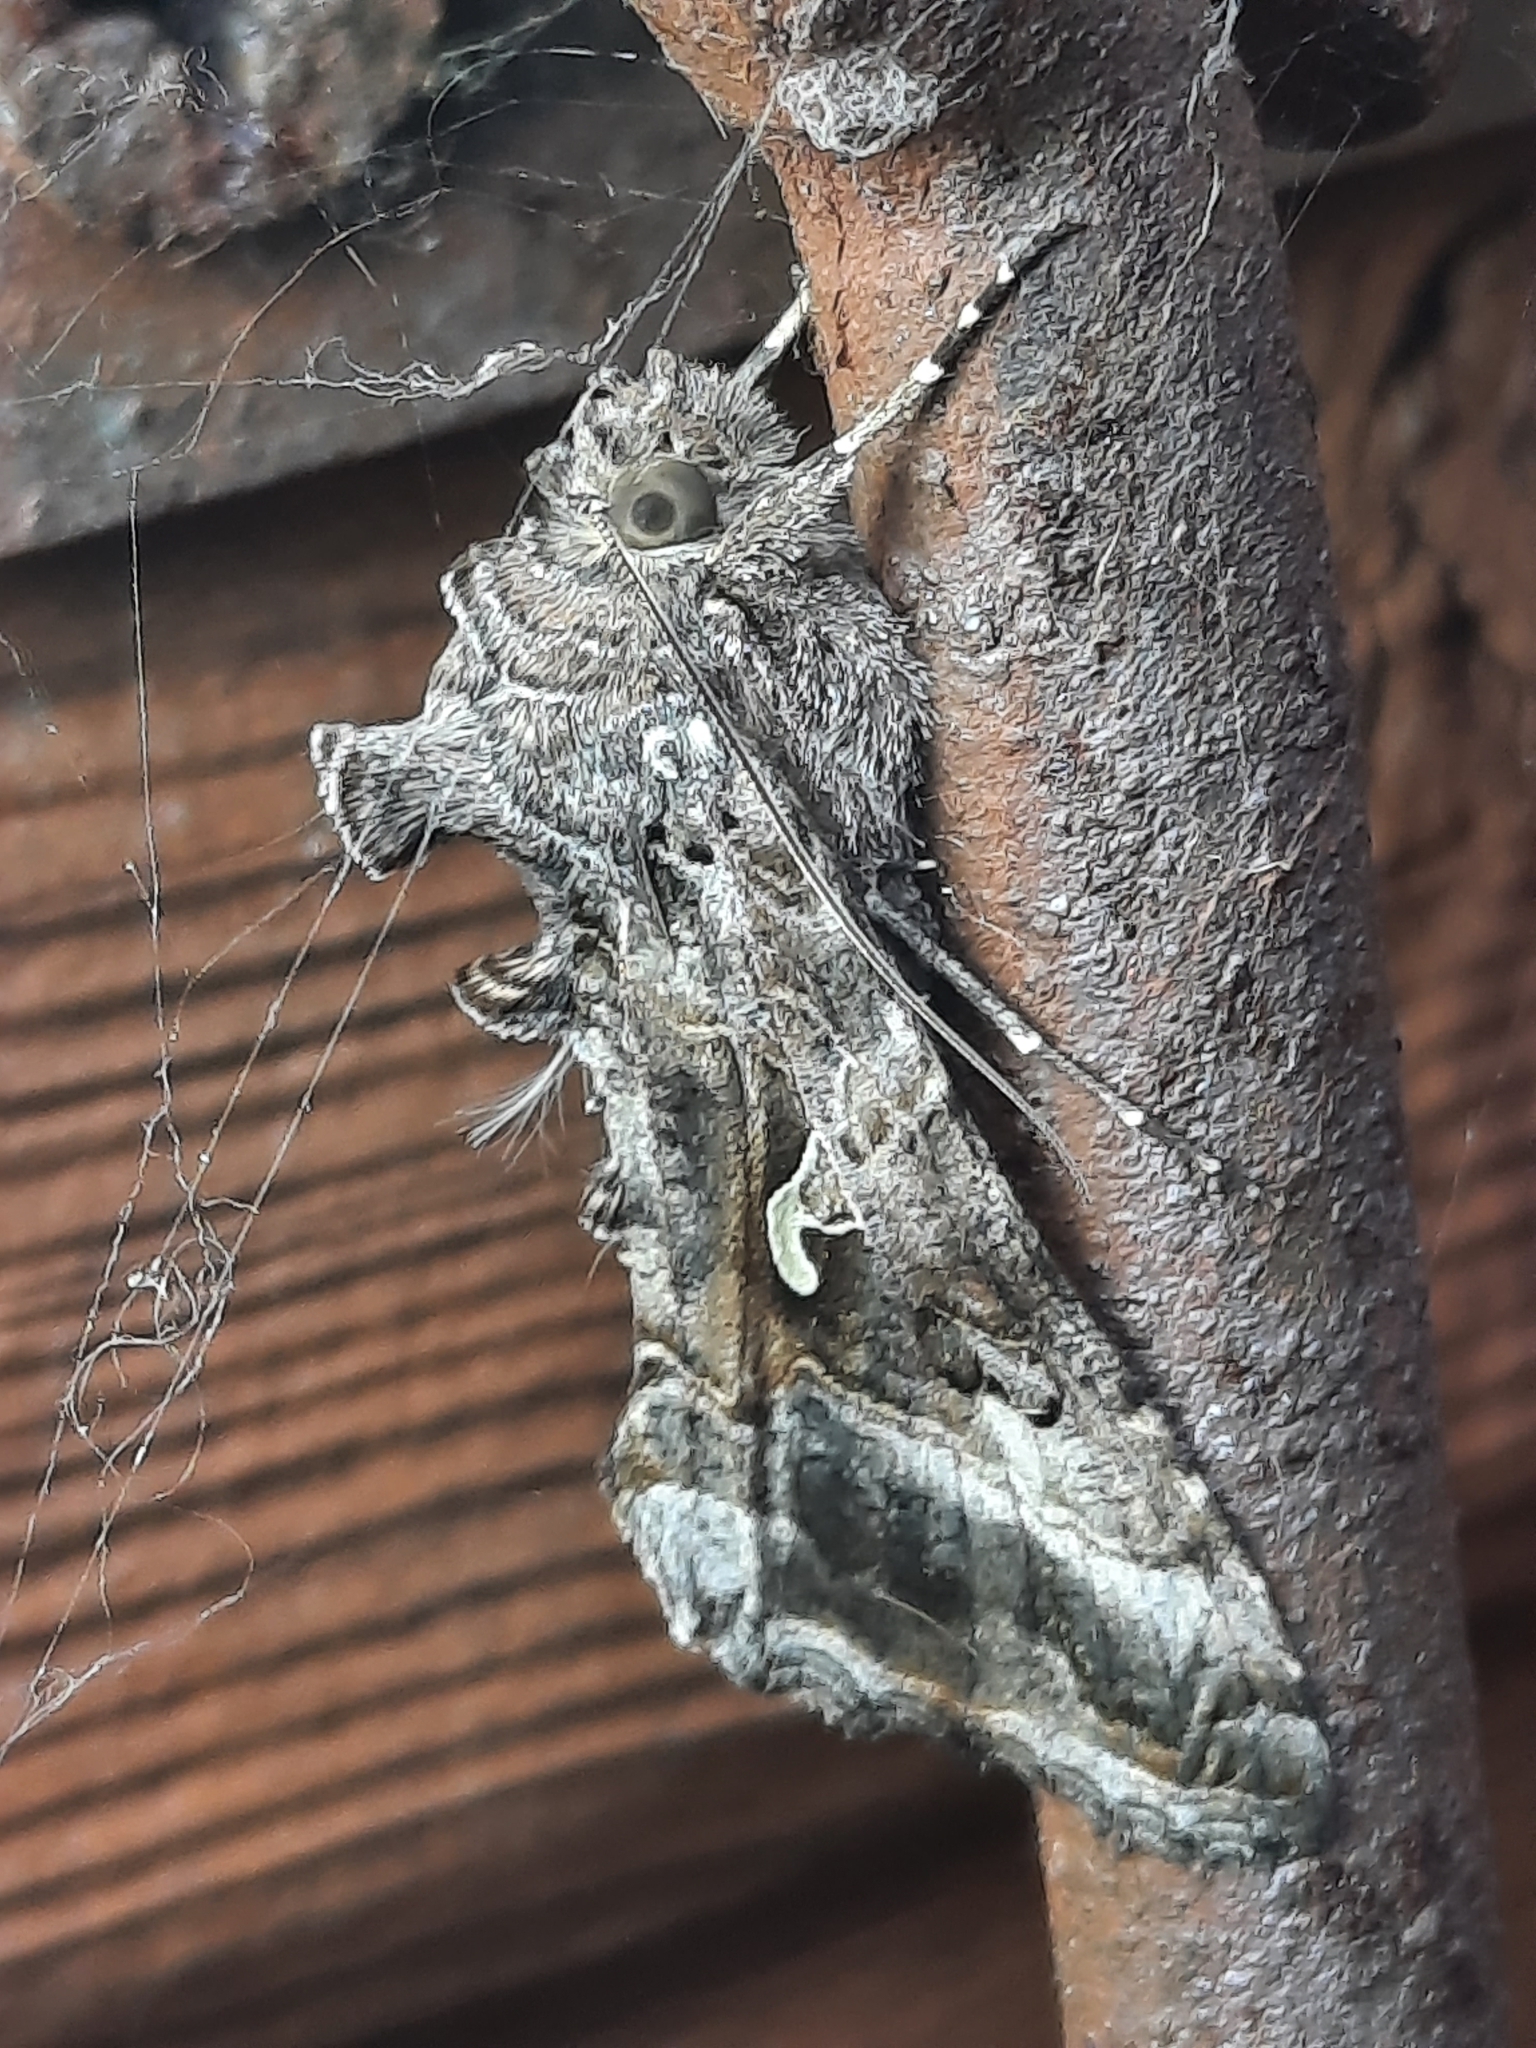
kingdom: Animalia
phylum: Arthropoda
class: Insecta
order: Lepidoptera
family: Noctuidae
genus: Autographa
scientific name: Autographa gamma
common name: Silver y
